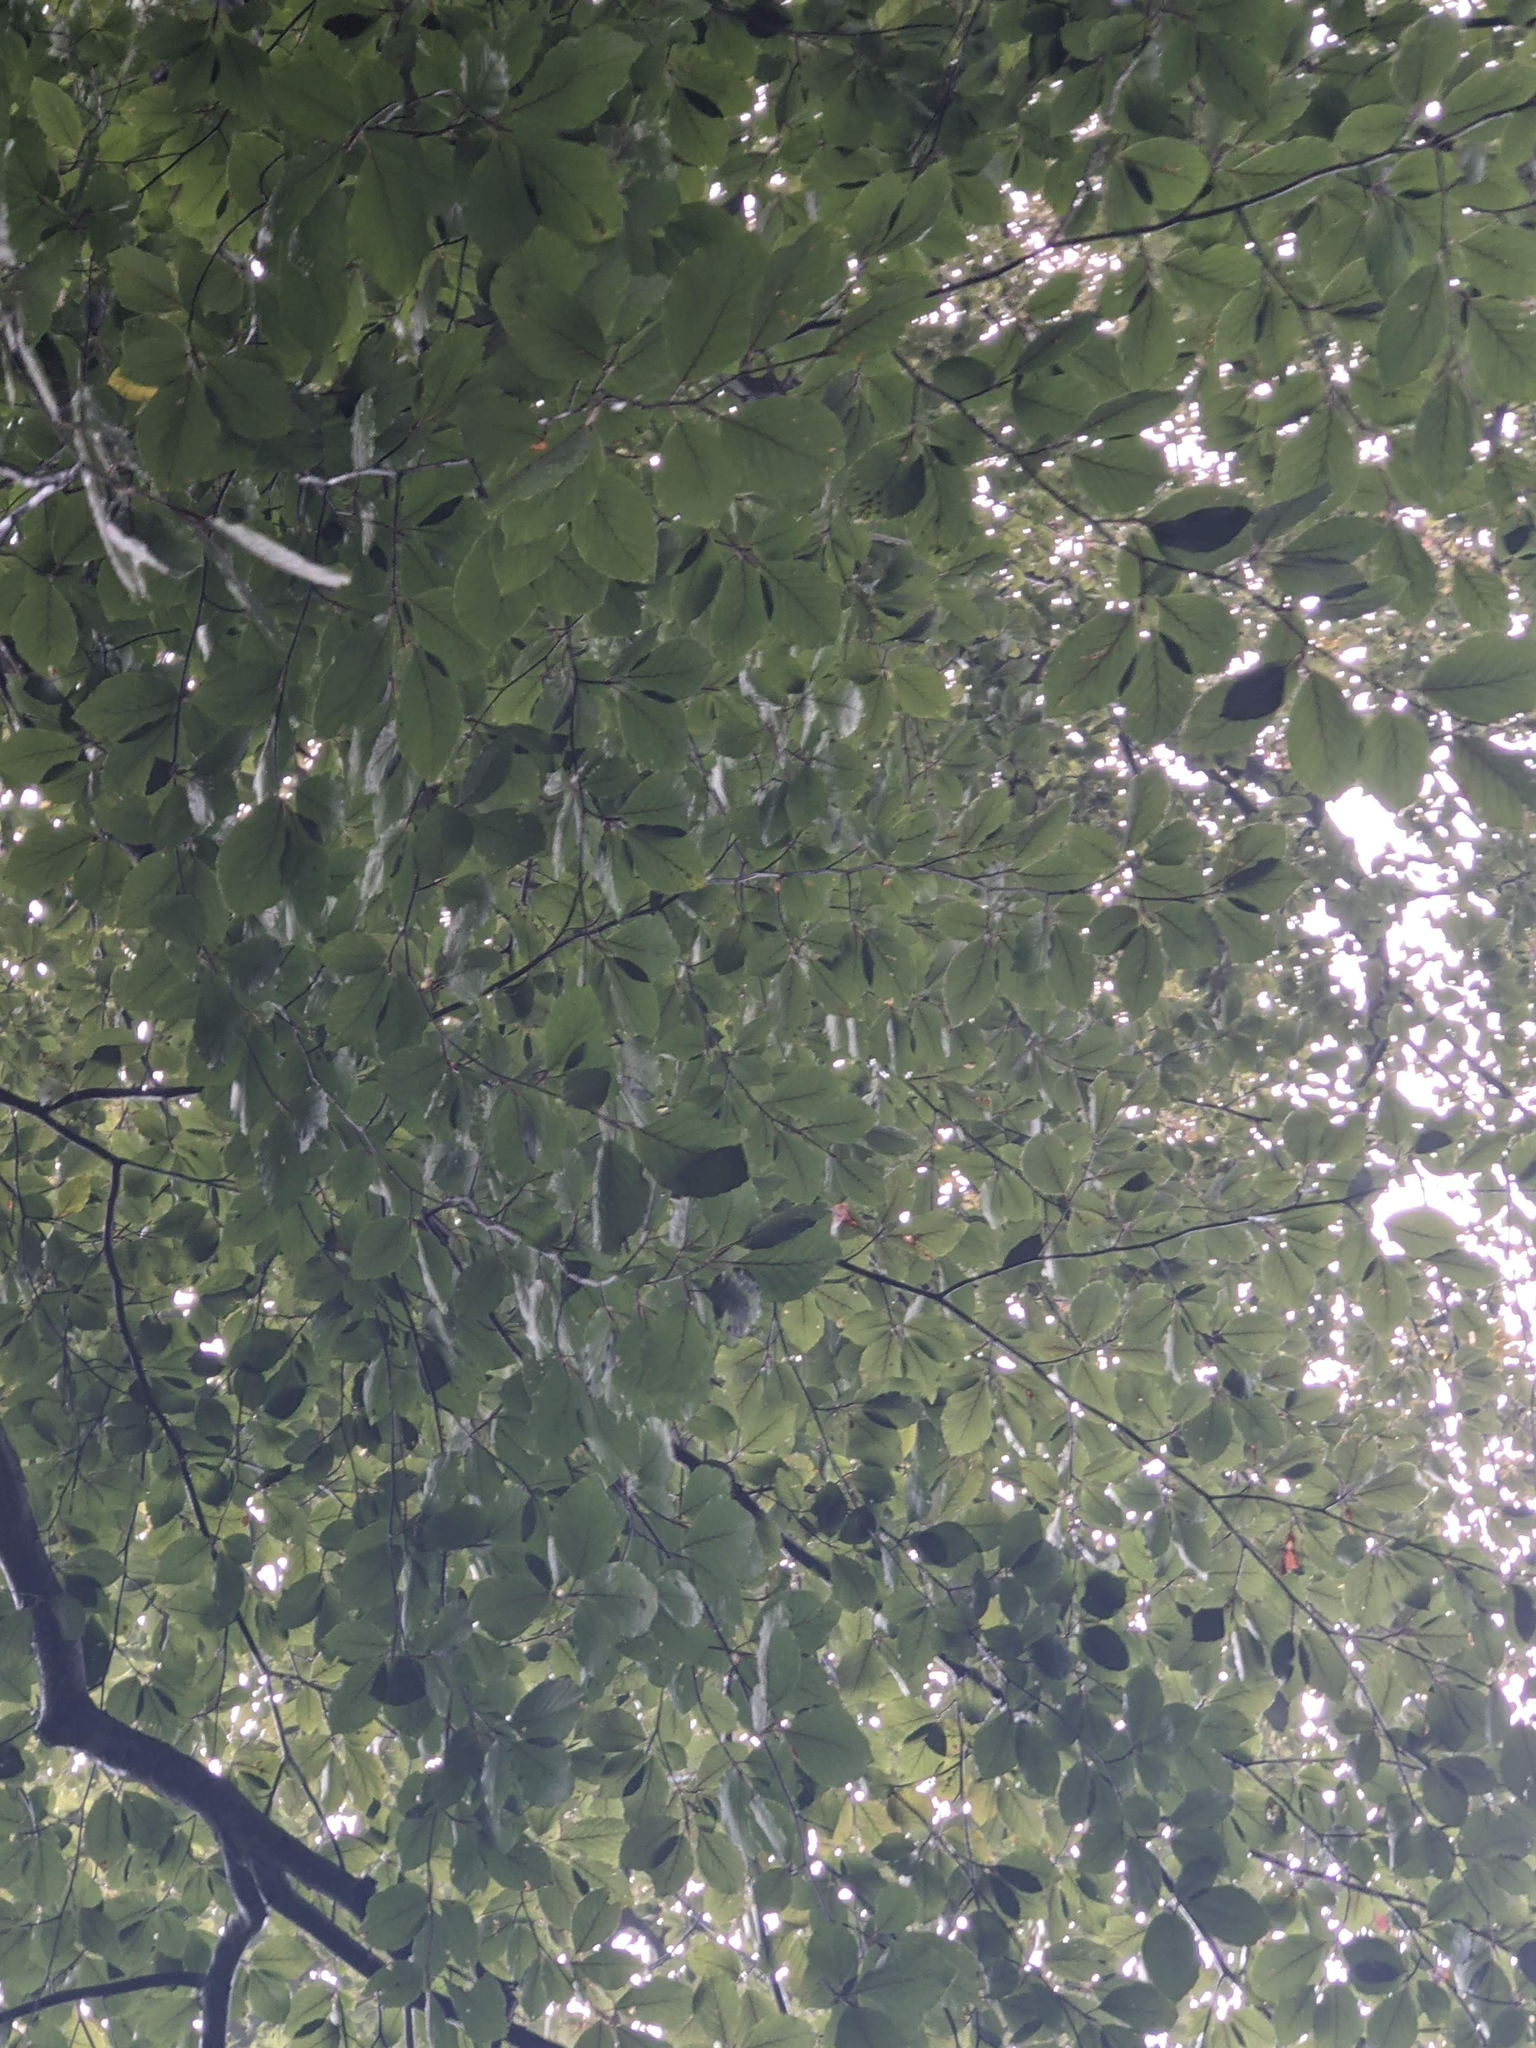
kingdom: Plantae
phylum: Tracheophyta
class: Magnoliopsida
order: Fagales
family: Fagaceae
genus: Fagus
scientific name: Fagus sylvatica
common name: Beech
